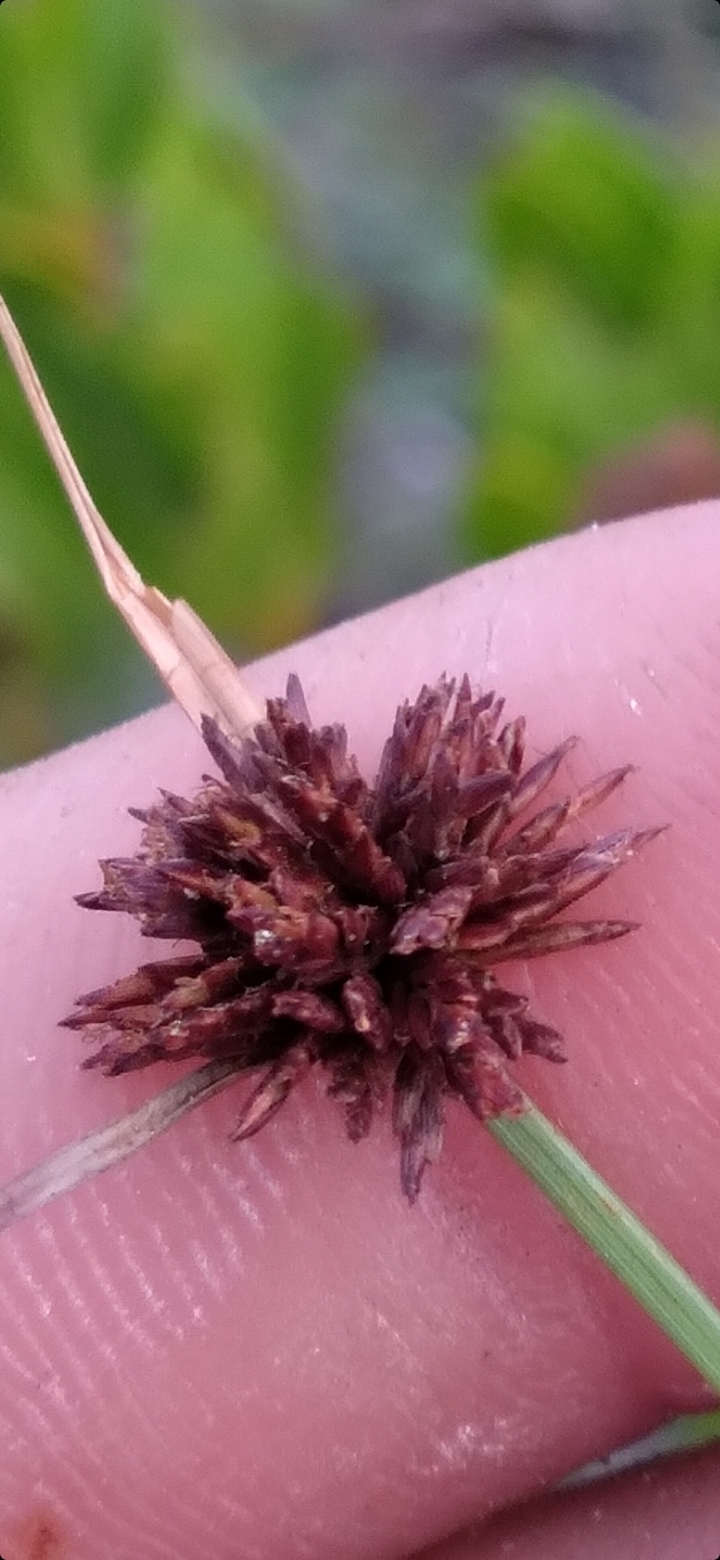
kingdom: Plantae
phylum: Tracheophyta
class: Liliopsida
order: Poales
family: Cyperaceae
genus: Cyperus
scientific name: Cyperus fuligineus
